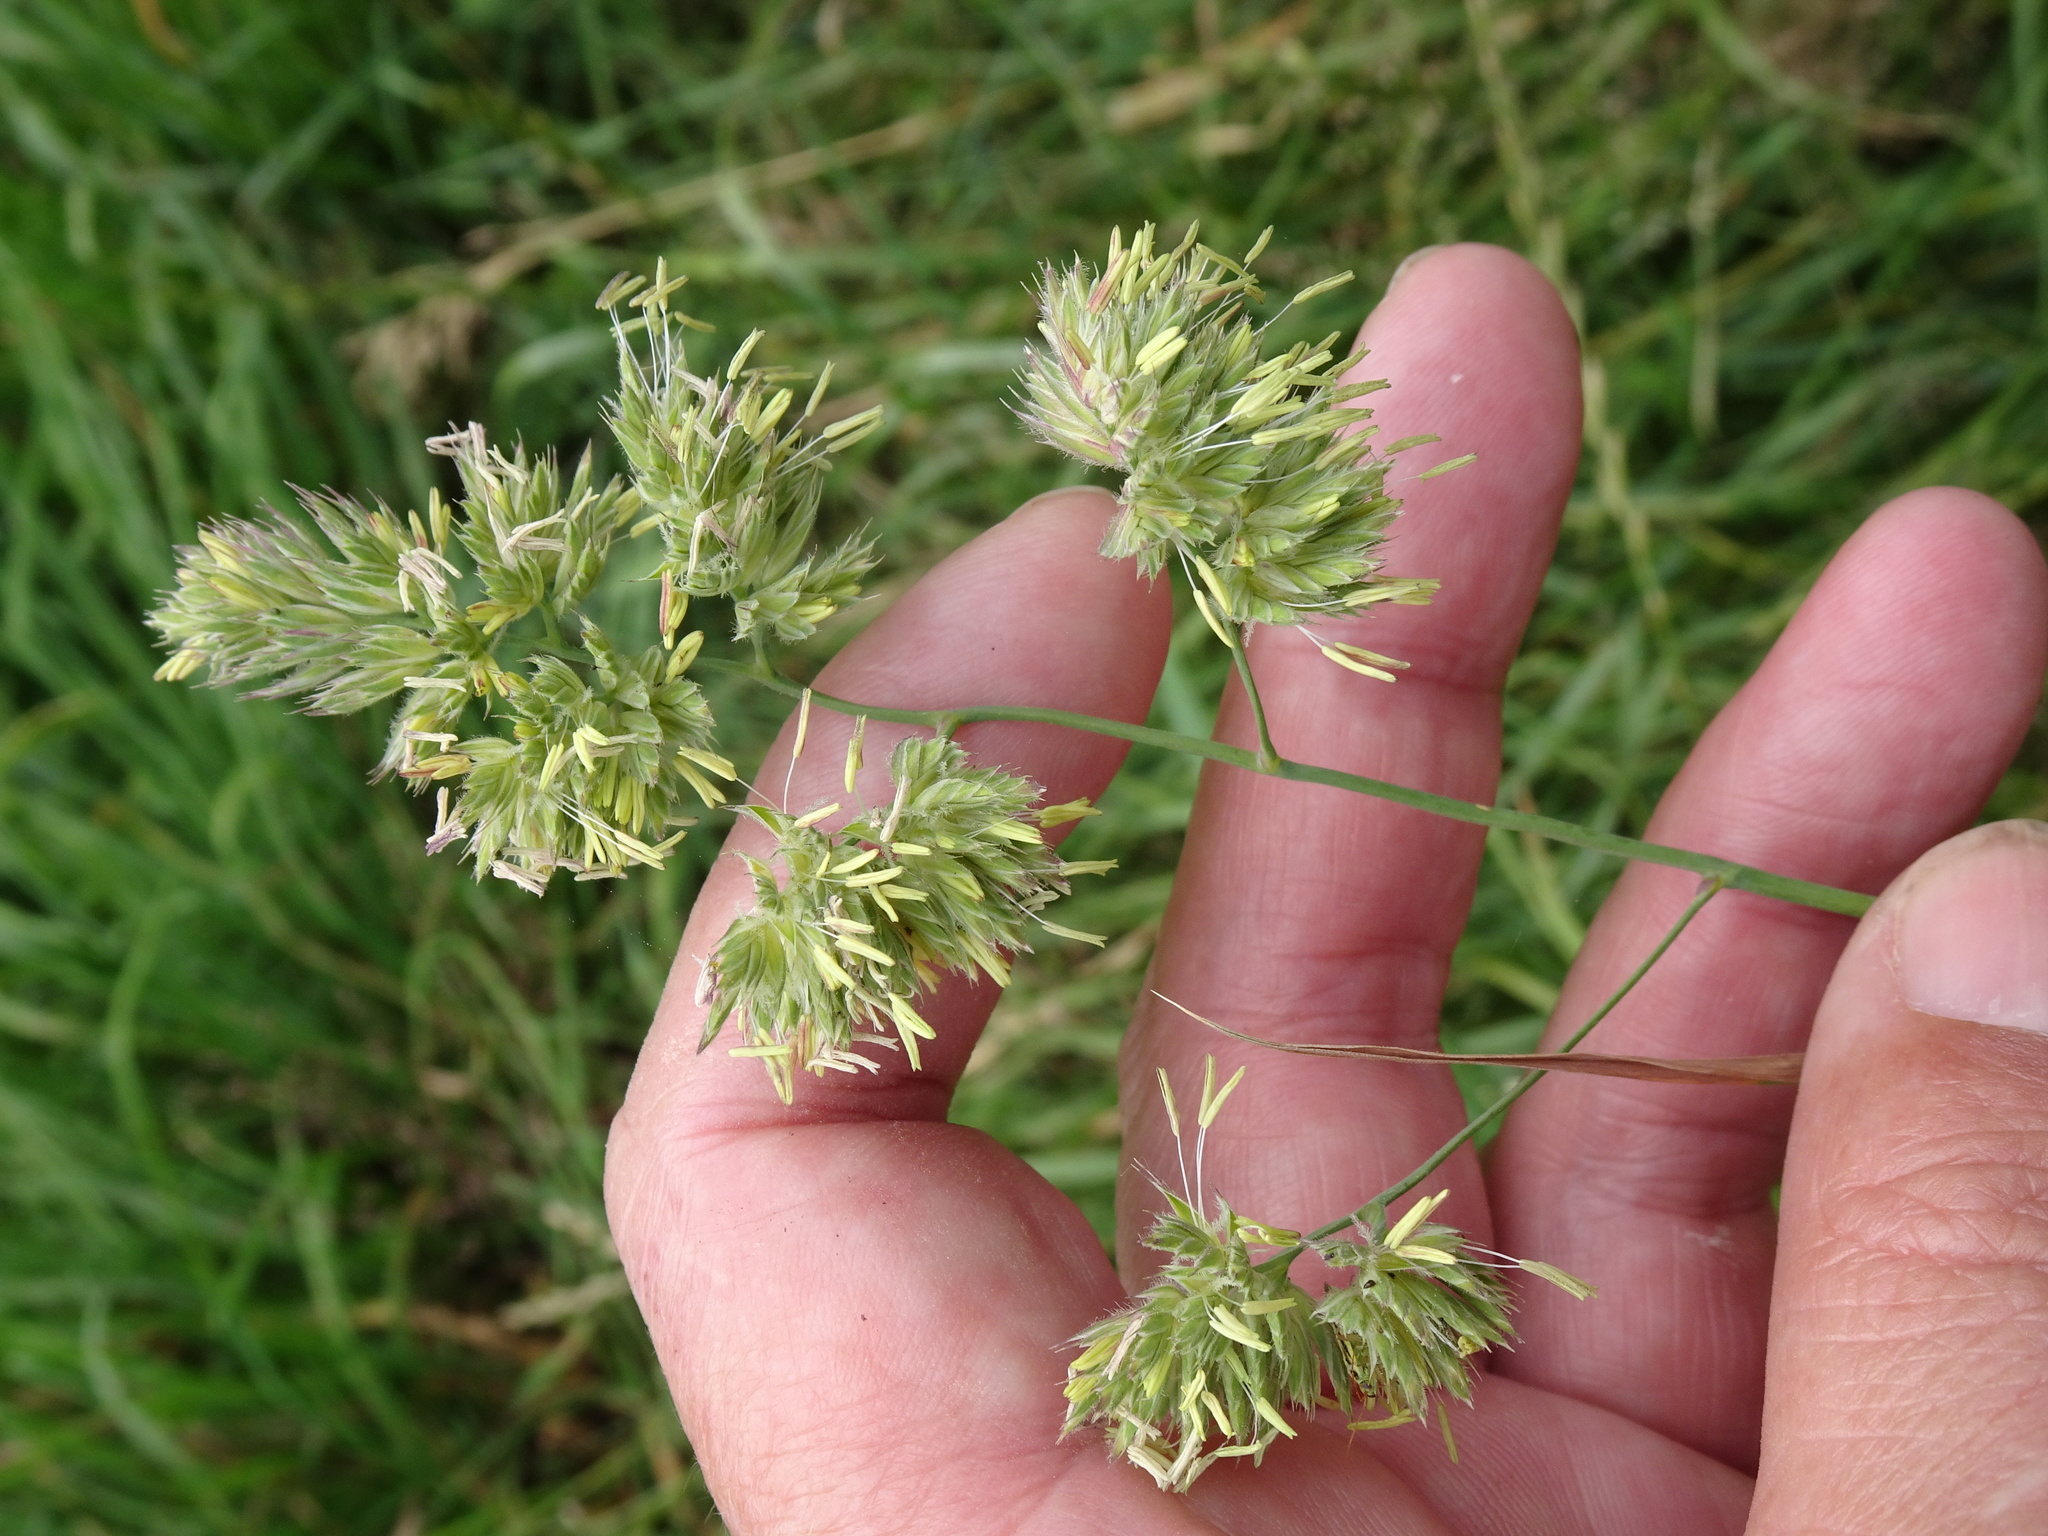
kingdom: Plantae
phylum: Tracheophyta
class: Liliopsida
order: Poales
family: Poaceae
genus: Dactylis
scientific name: Dactylis glomerata
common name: Orchardgrass
